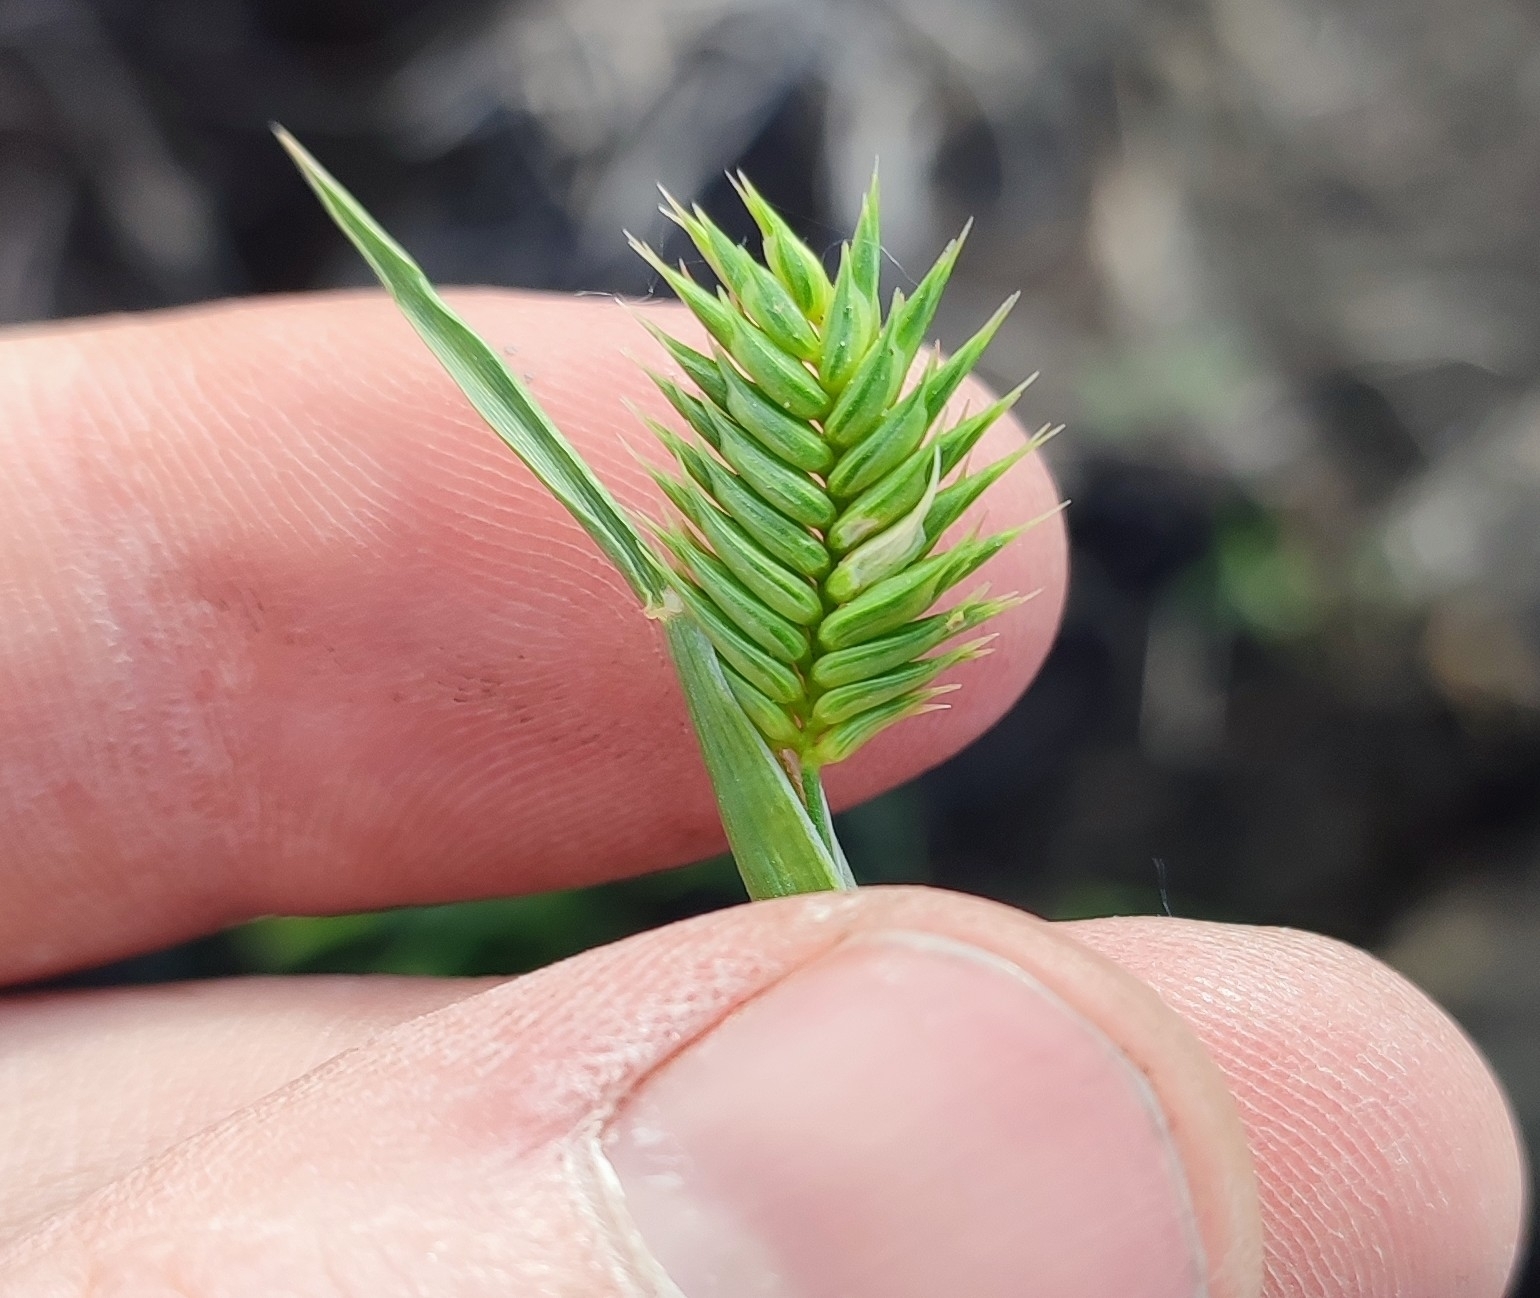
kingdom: Plantae
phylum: Tracheophyta
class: Liliopsida
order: Poales
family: Poaceae
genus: Eremopyrum
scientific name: Eremopyrum triticeum
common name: Annual wheatgrass
